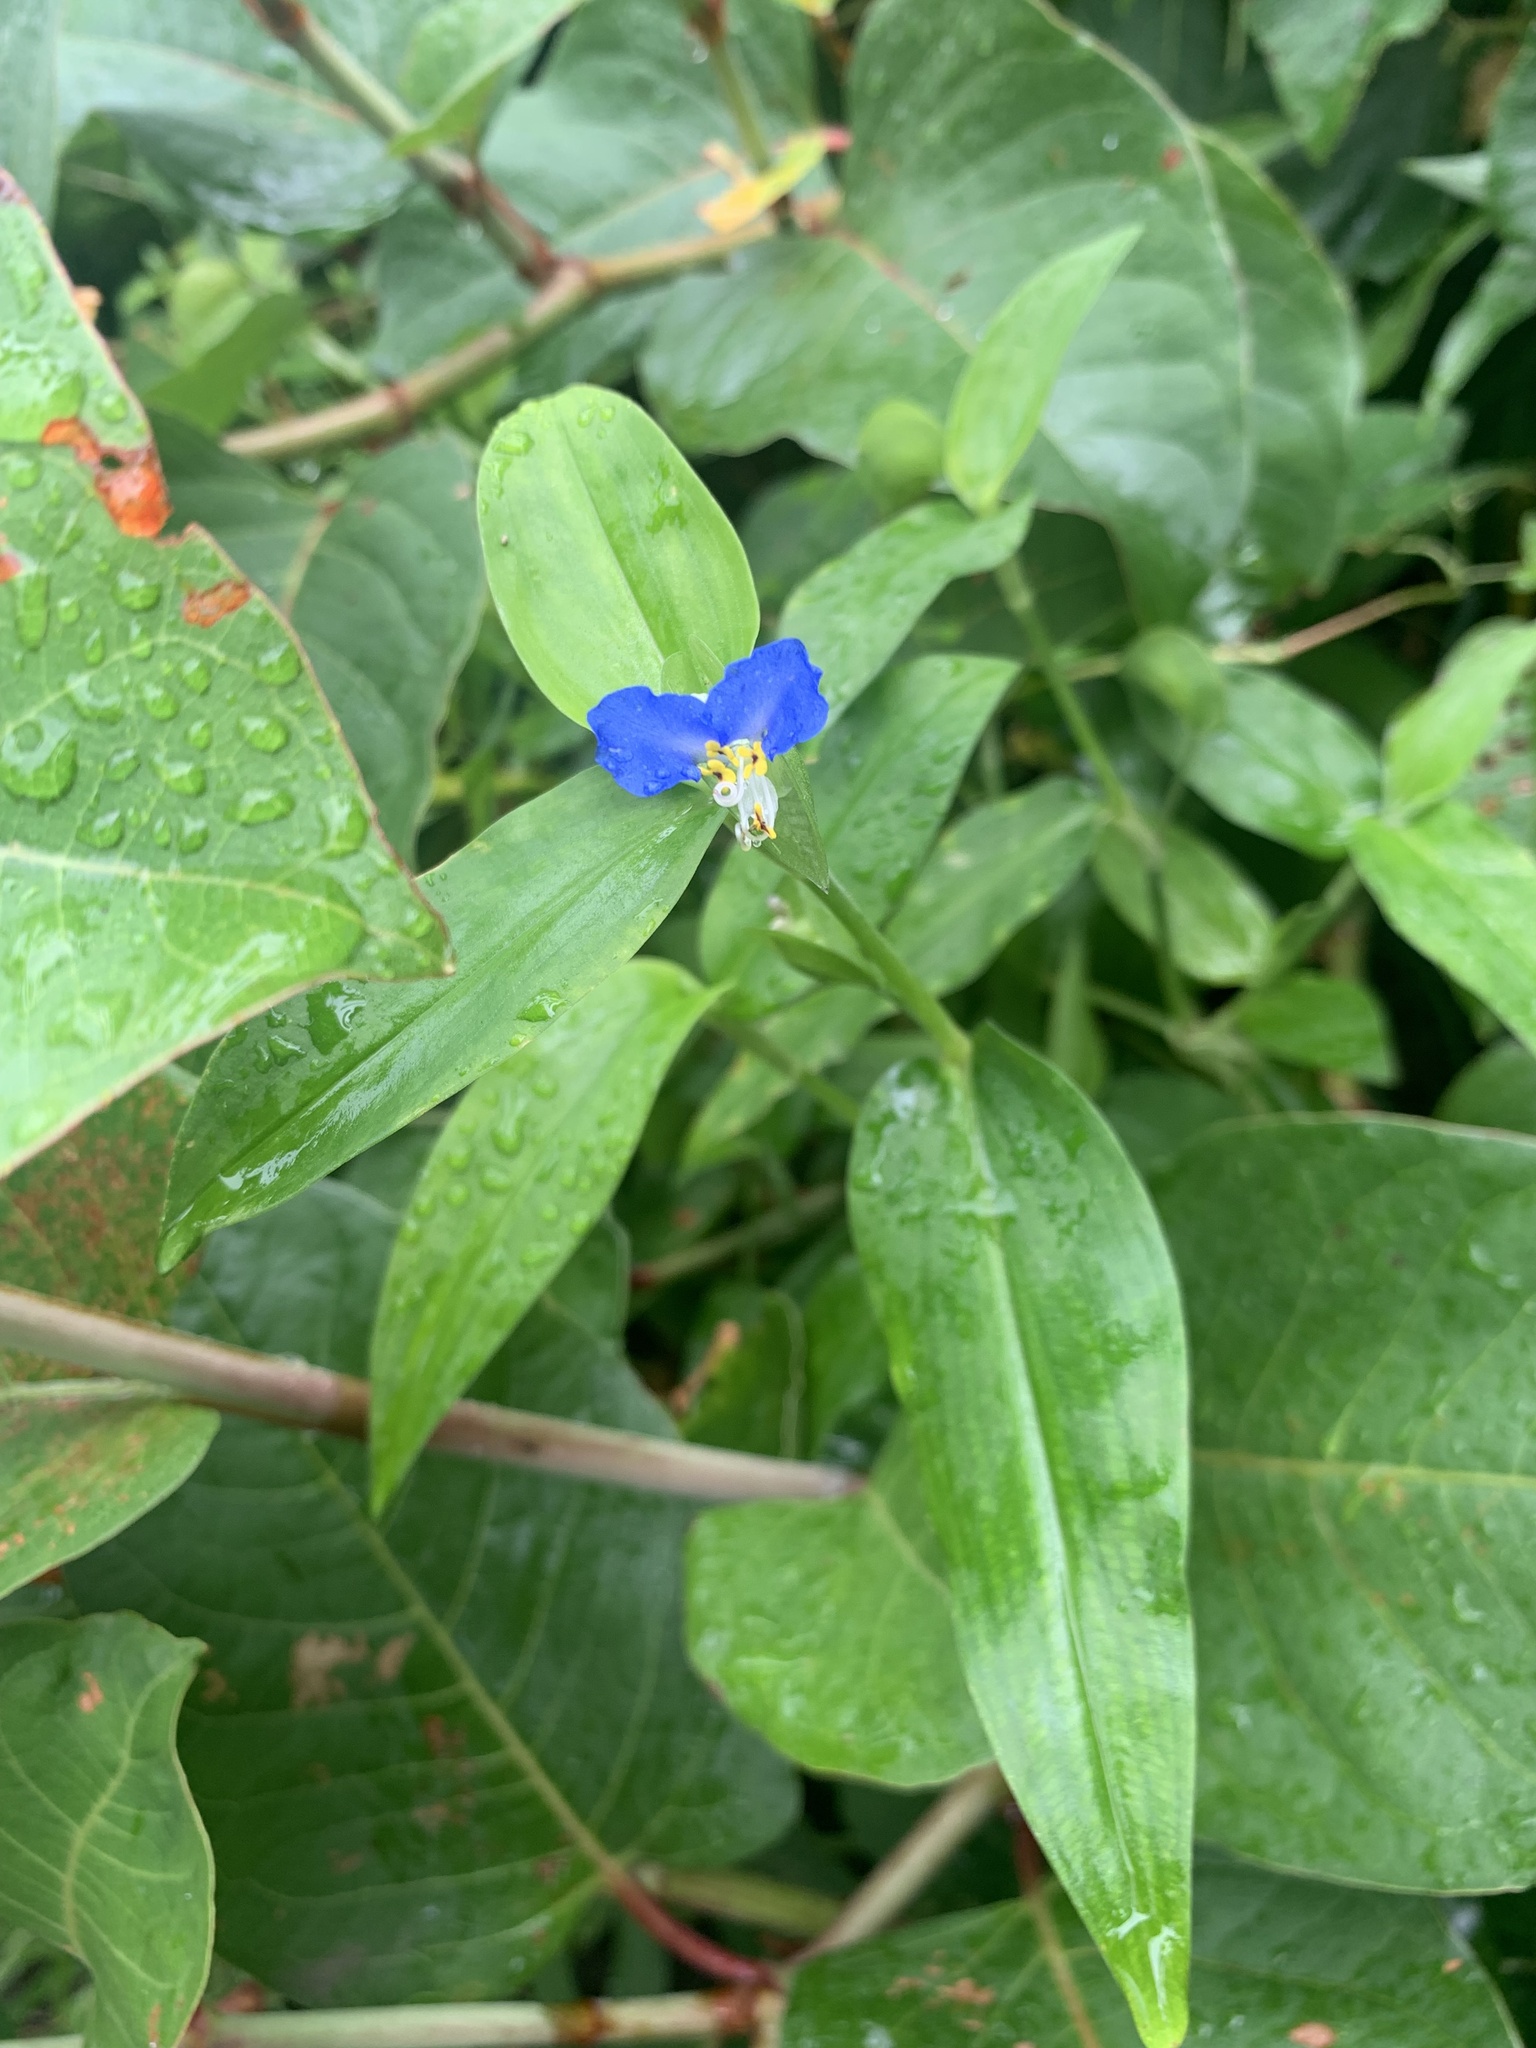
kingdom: Plantae
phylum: Tracheophyta
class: Liliopsida
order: Commelinales
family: Commelinaceae
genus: Commelina
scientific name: Commelina communis
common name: Asiatic dayflower
